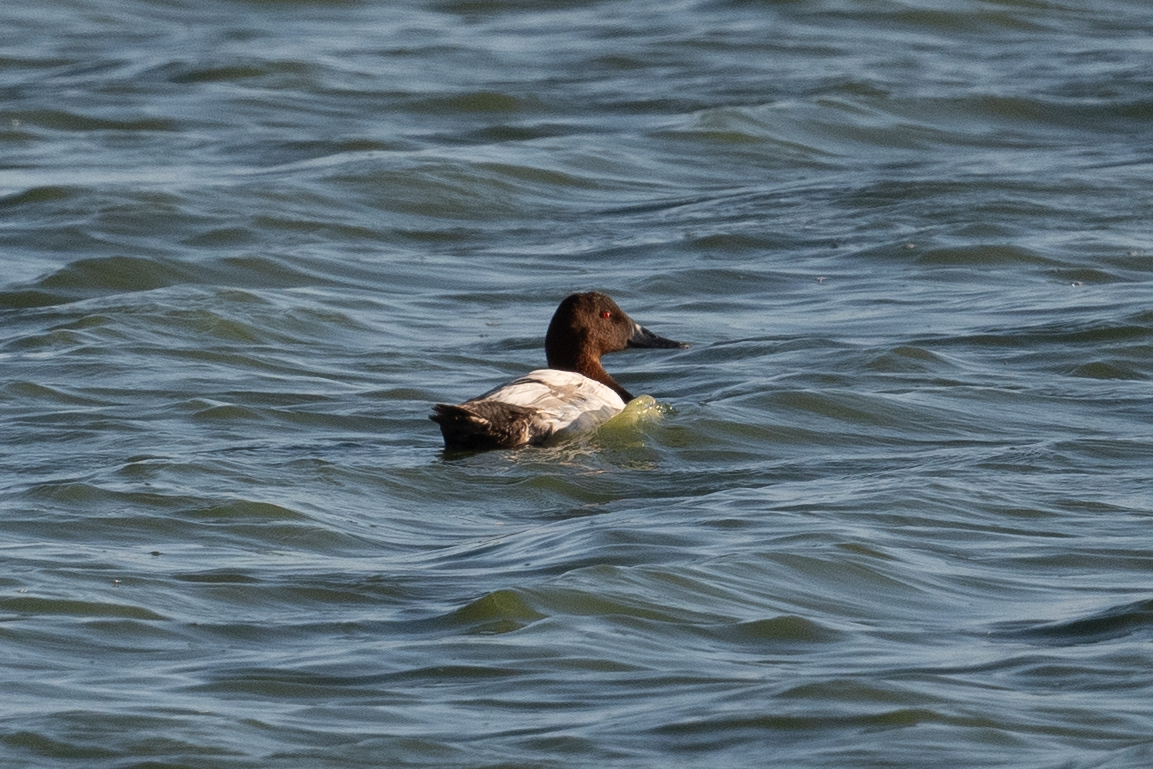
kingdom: Animalia
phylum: Chordata
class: Aves
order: Anseriformes
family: Anatidae
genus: Aythya
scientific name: Aythya valisineria
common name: Canvasback
